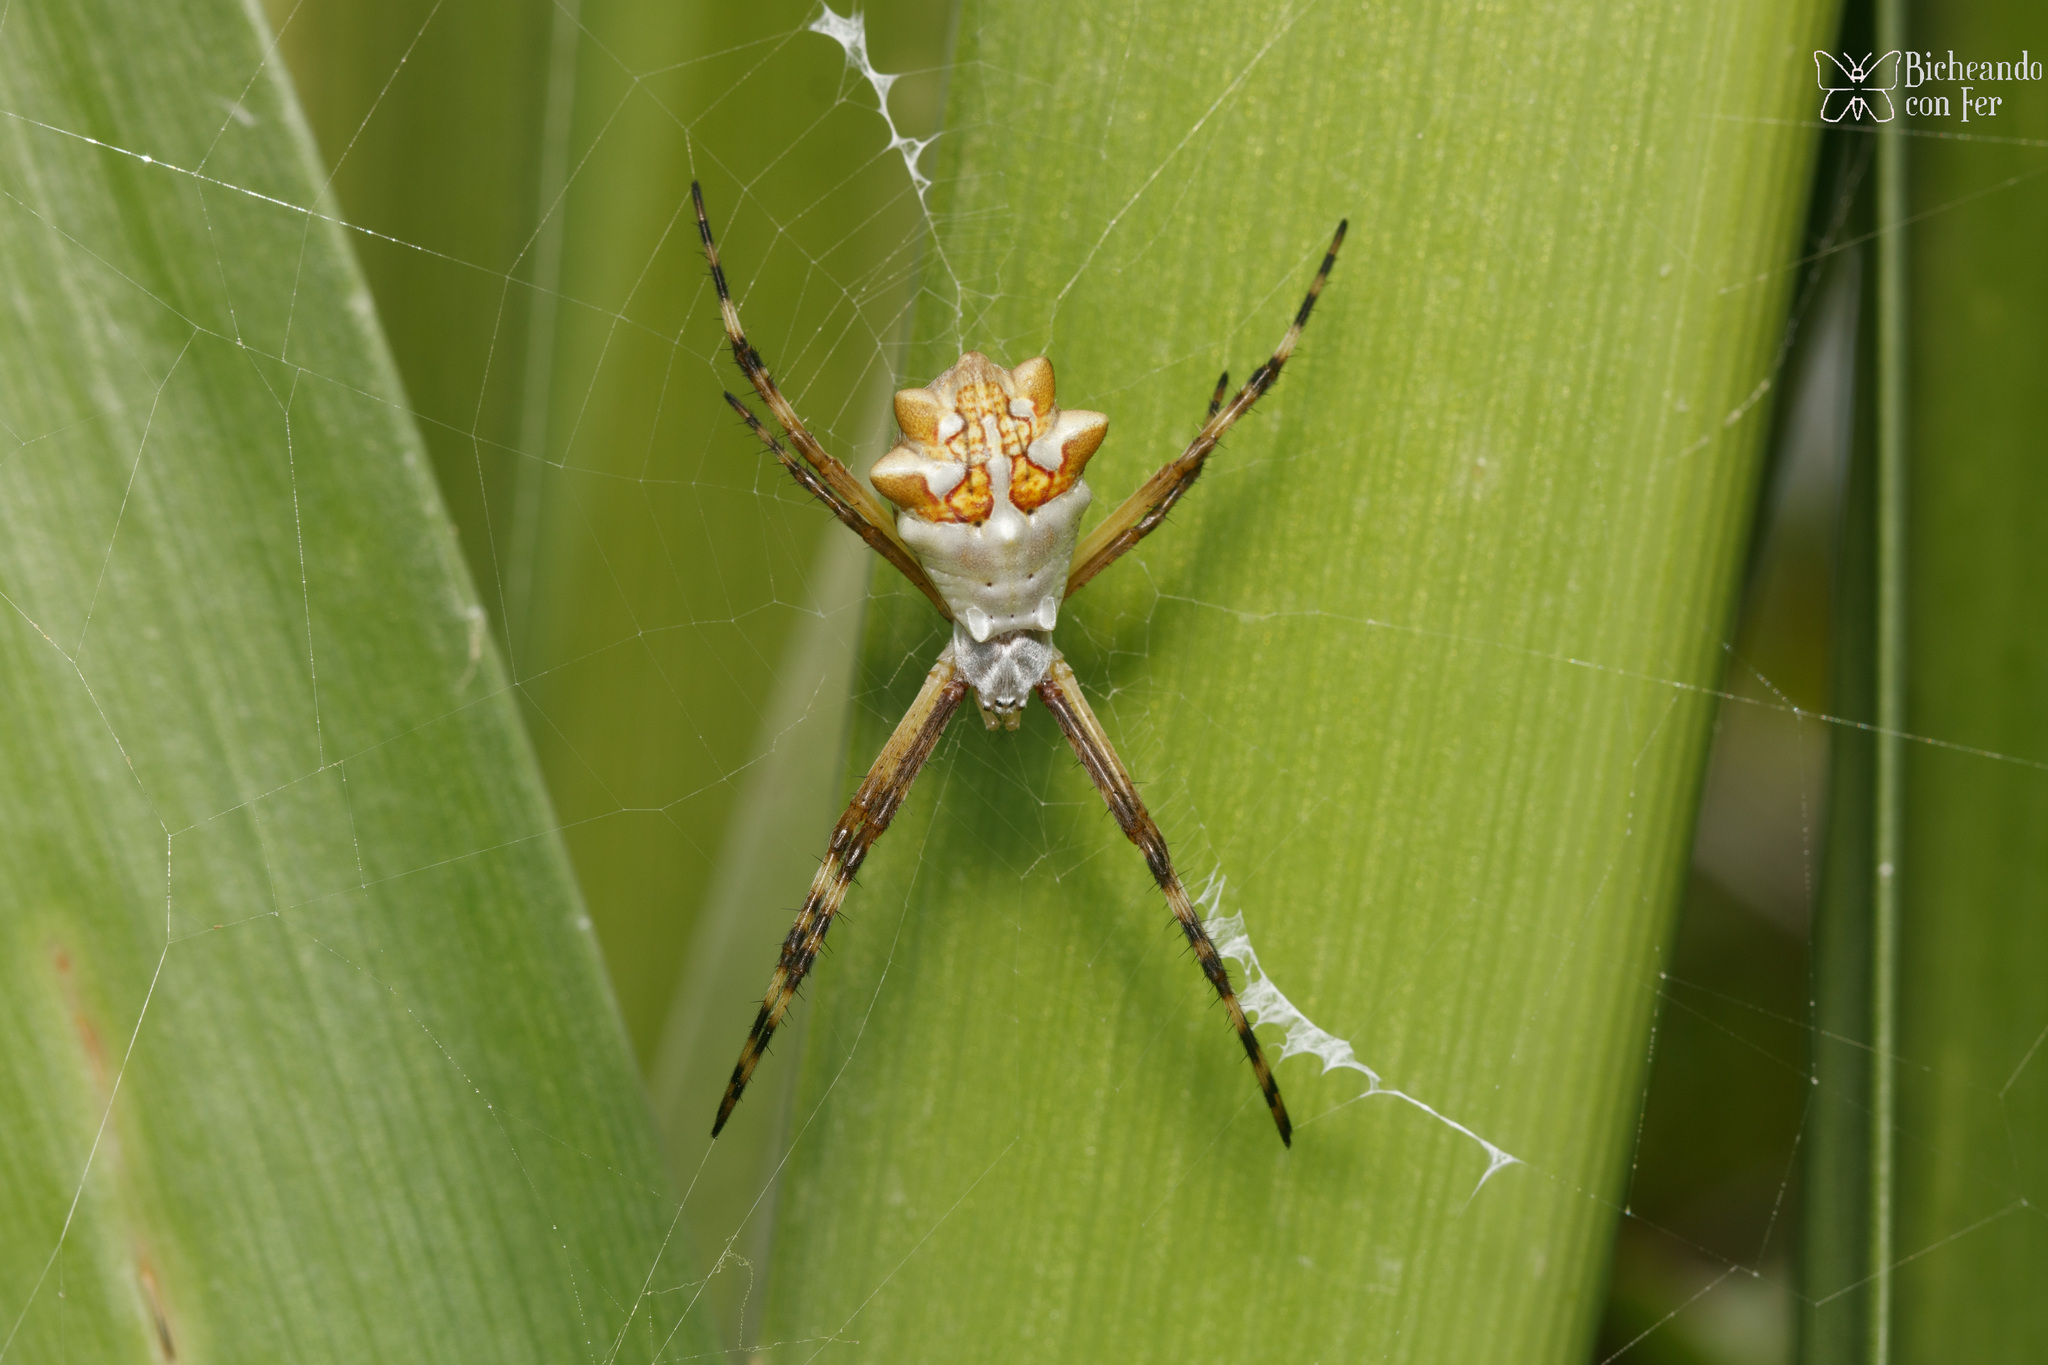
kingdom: Animalia
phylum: Arthropoda
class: Arachnida
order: Araneae
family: Araneidae
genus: Argiope
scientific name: Argiope argentata
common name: Orb weavers
